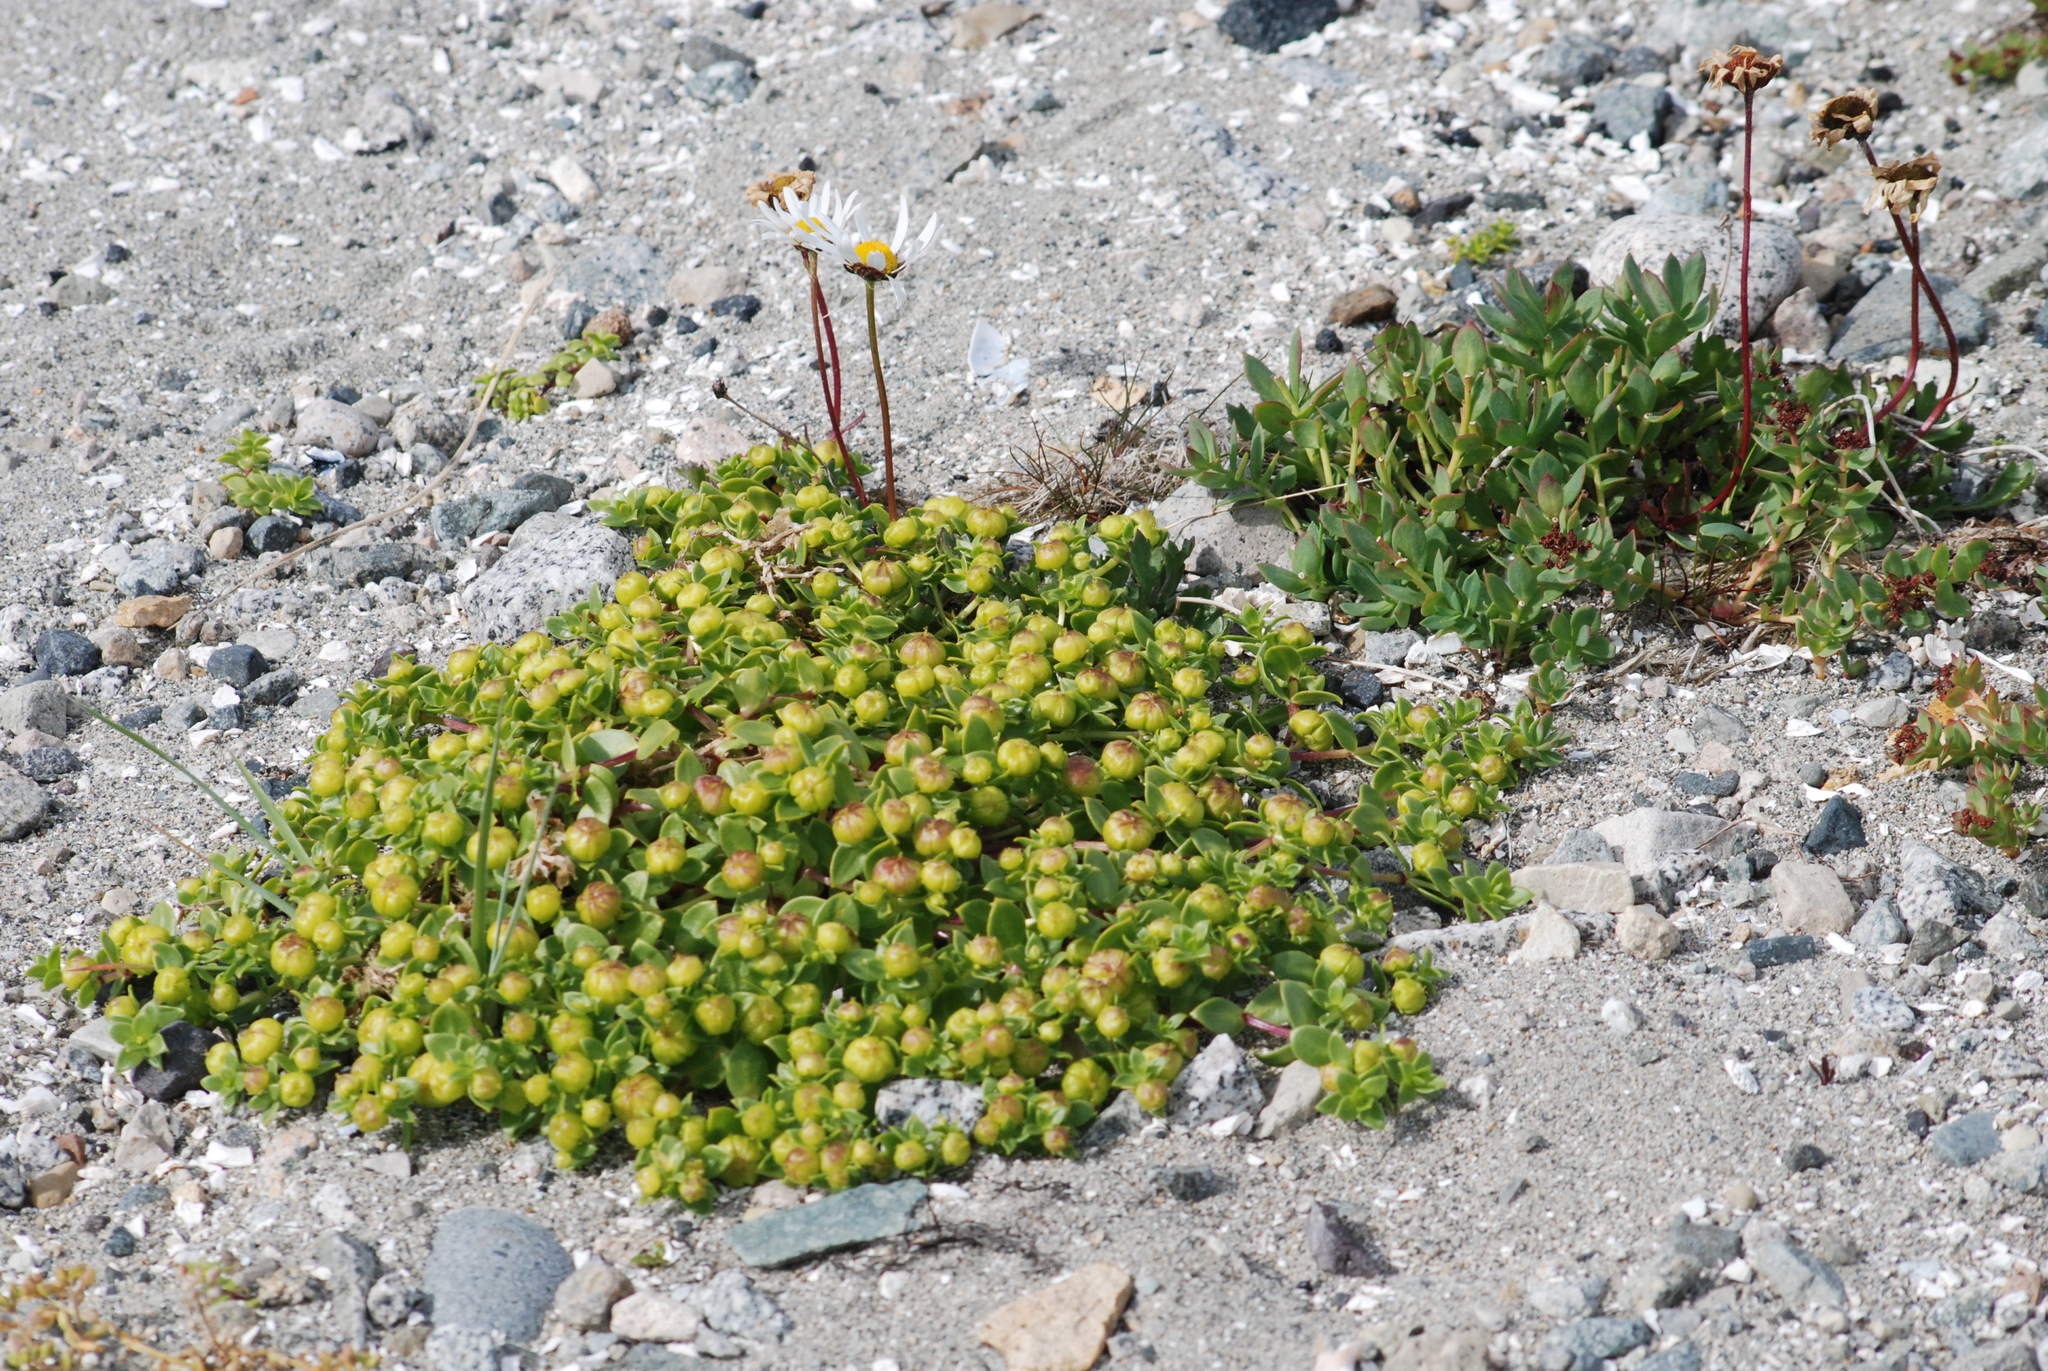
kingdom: Plantae
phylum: Tracheophyta
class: Magnoliopsida
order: Caryophyllales
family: Caryophyllaceae
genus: Honckenya
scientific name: Honckenya peploides
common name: Sea sandwort
